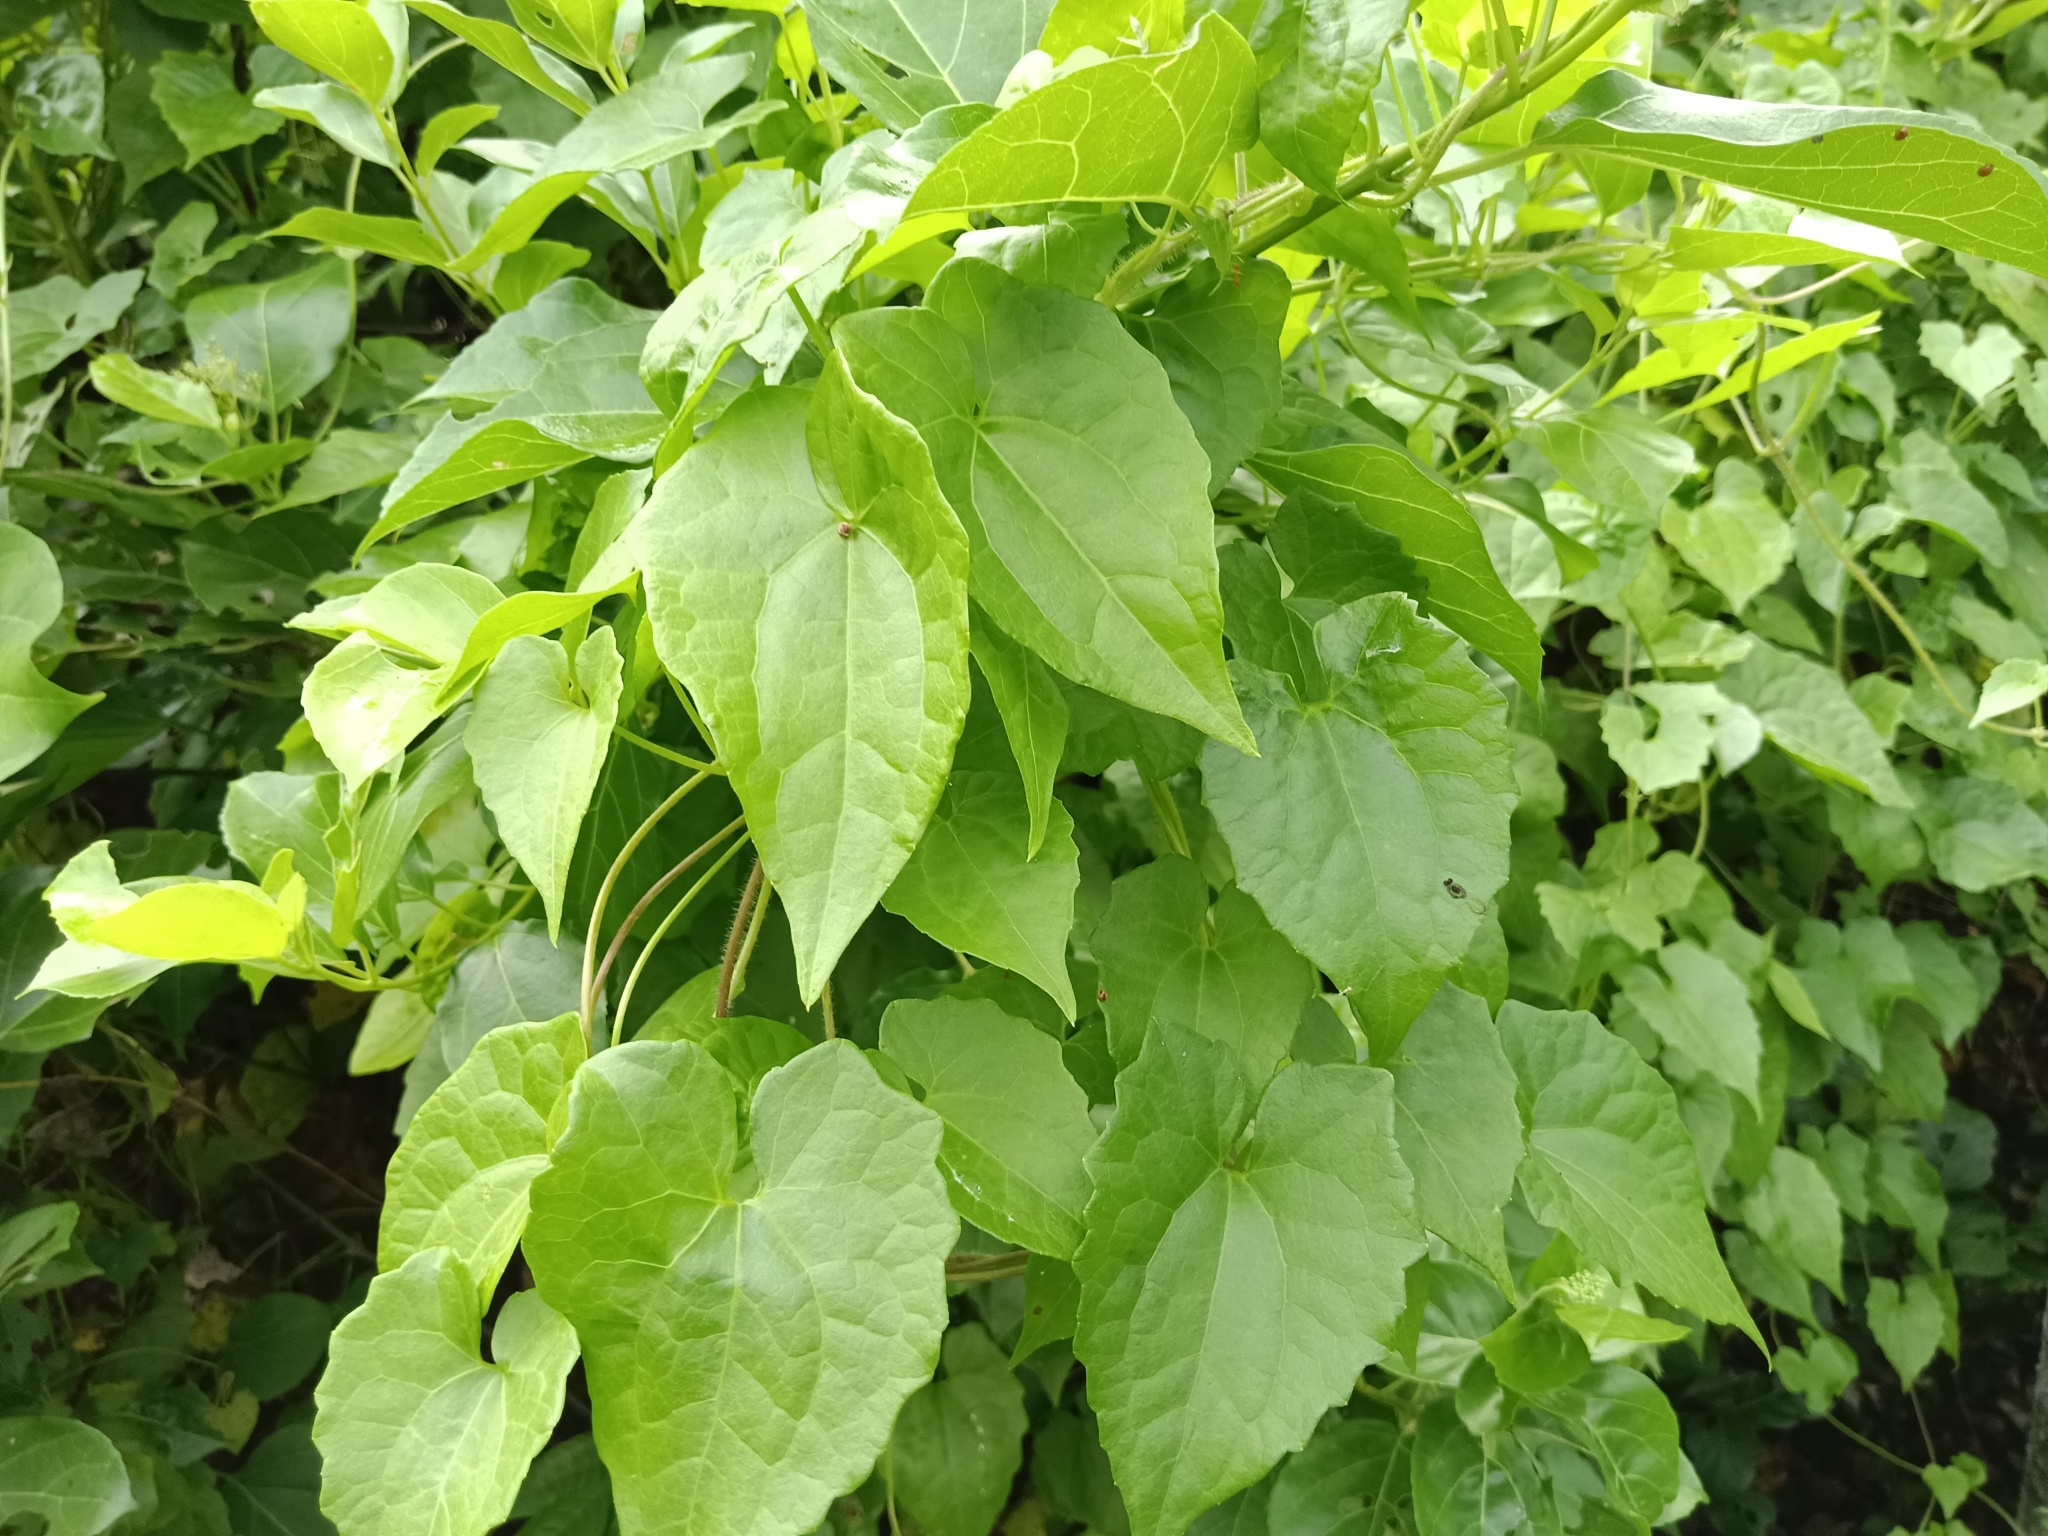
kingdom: Plantae
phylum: Tracheophyta
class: Magnoliopsida
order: Asterales
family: Asteraceae
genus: Mikania
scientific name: Mikania micrantha
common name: Mile-a-minute
